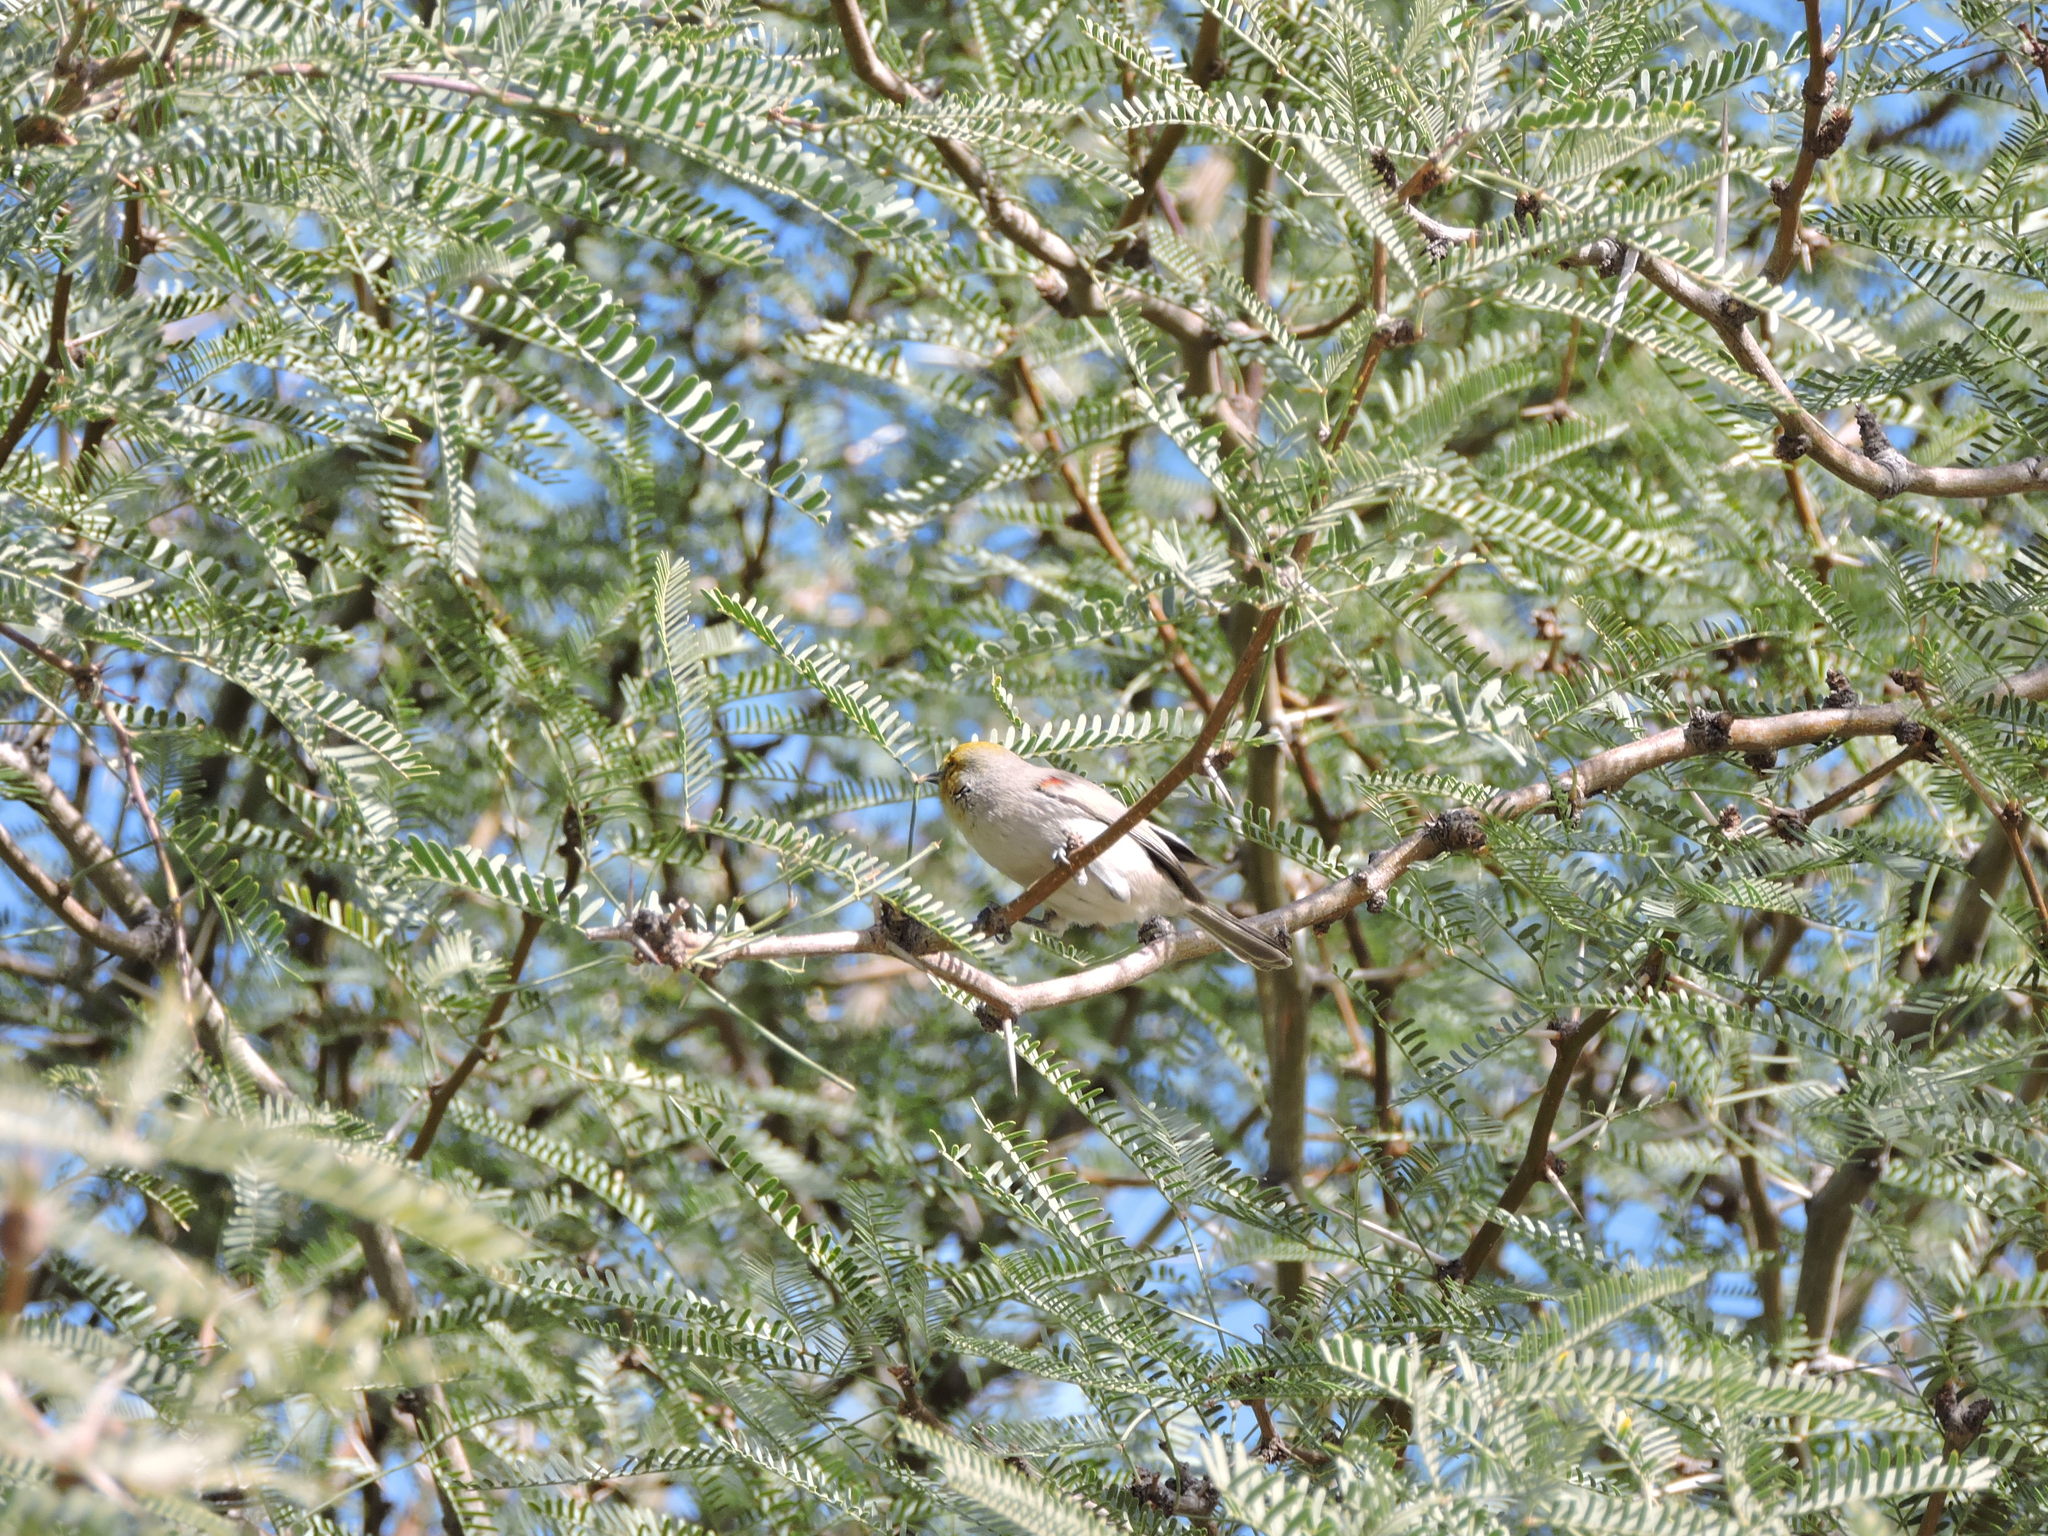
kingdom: Animalia
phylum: Chordata
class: Aves
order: Passeriformes
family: Remizidae
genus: Auriparus
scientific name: Auriparus flaviceps
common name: Verdin
